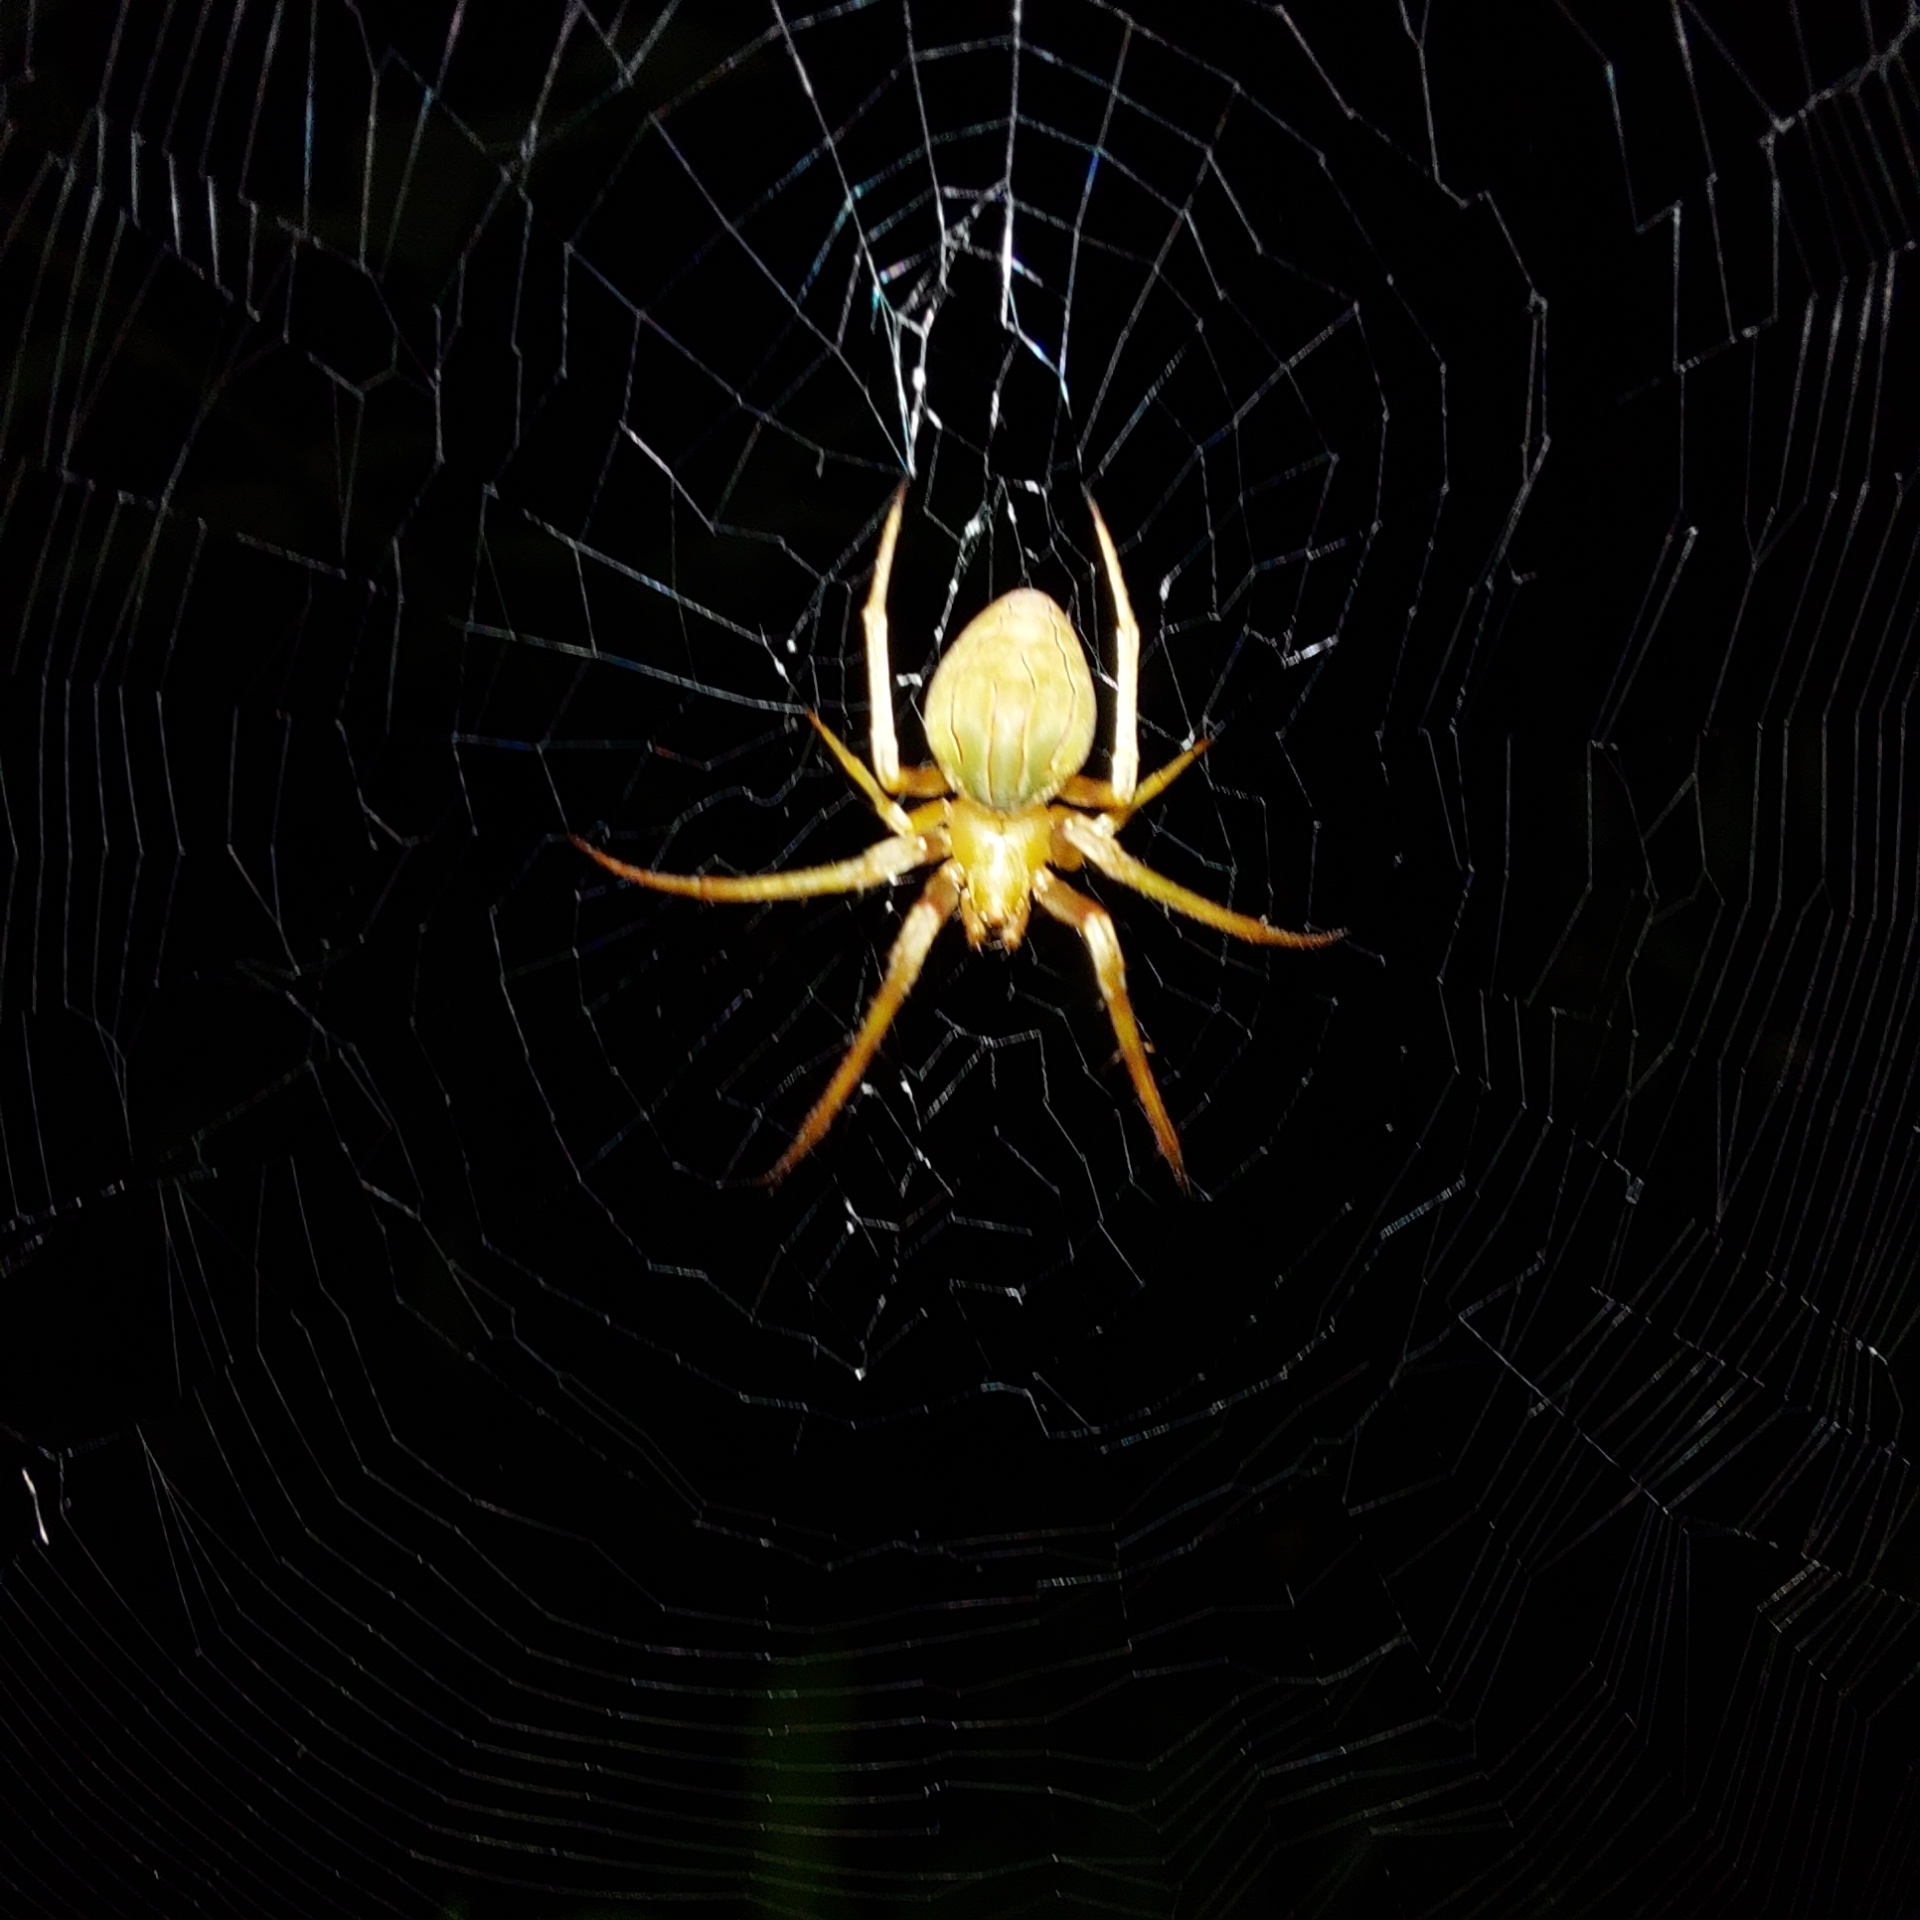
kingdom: Animalia
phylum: Arthropoda
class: Arachnida
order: Araneae
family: Araneidae
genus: Acacesia
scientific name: Acacesia hamata
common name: Orb weavers
